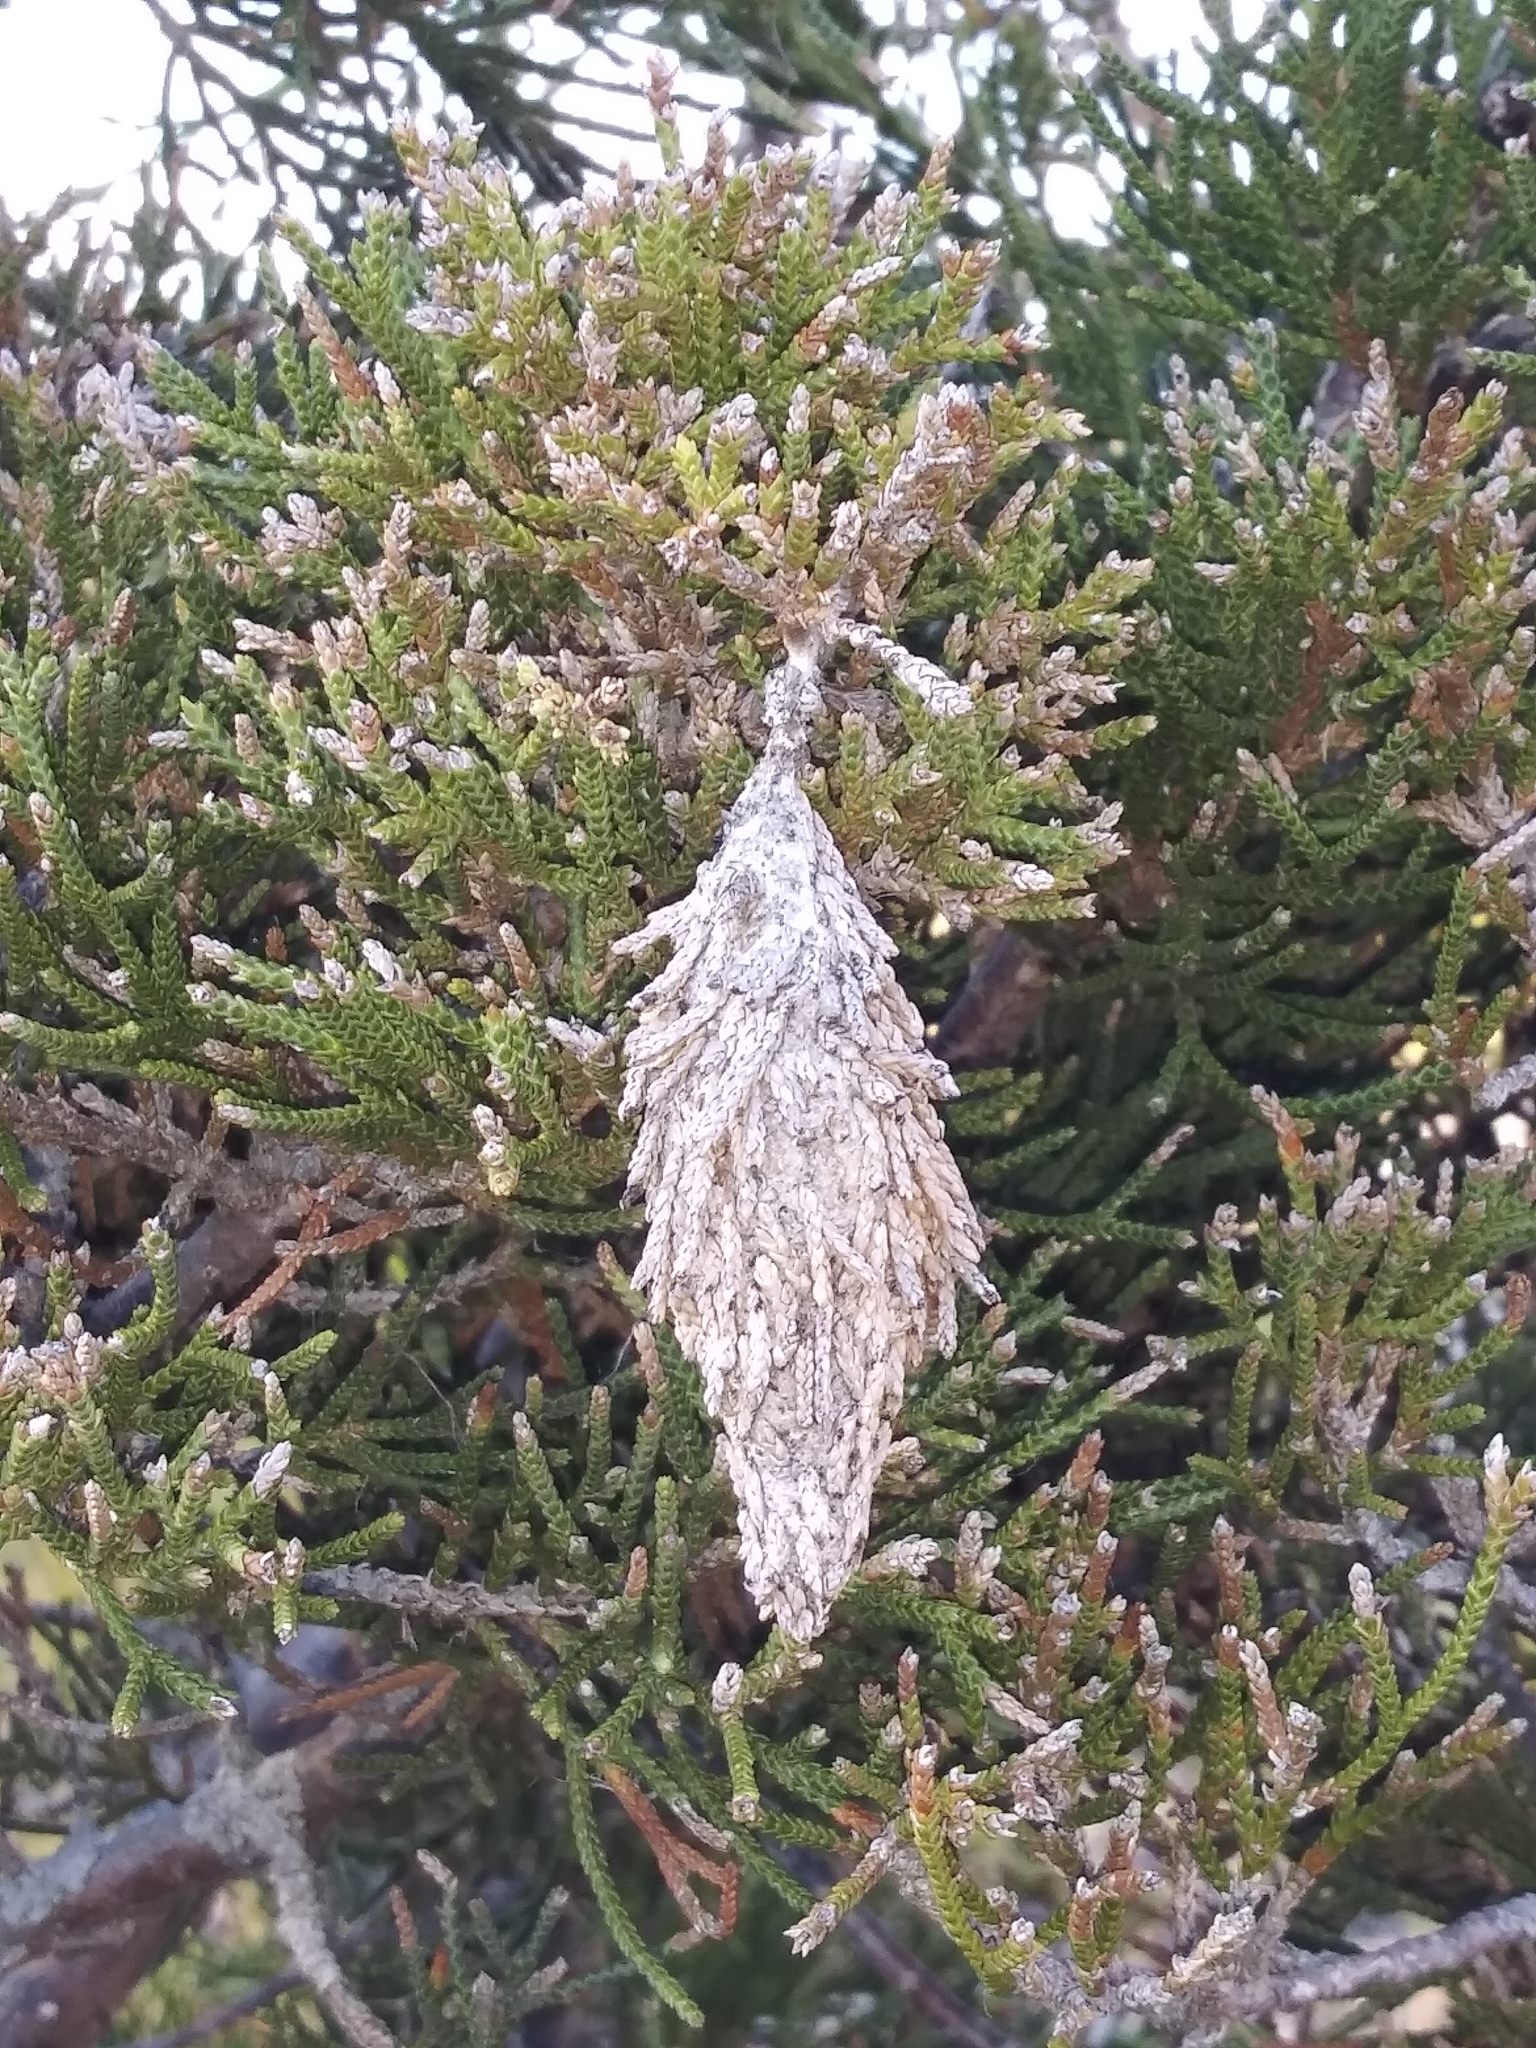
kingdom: Animalia
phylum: Arthropoda
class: Insecta
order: Lepidoptera
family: Psychidae
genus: Thyridopteryx
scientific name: Thyridopteryx ephemeraeformis
